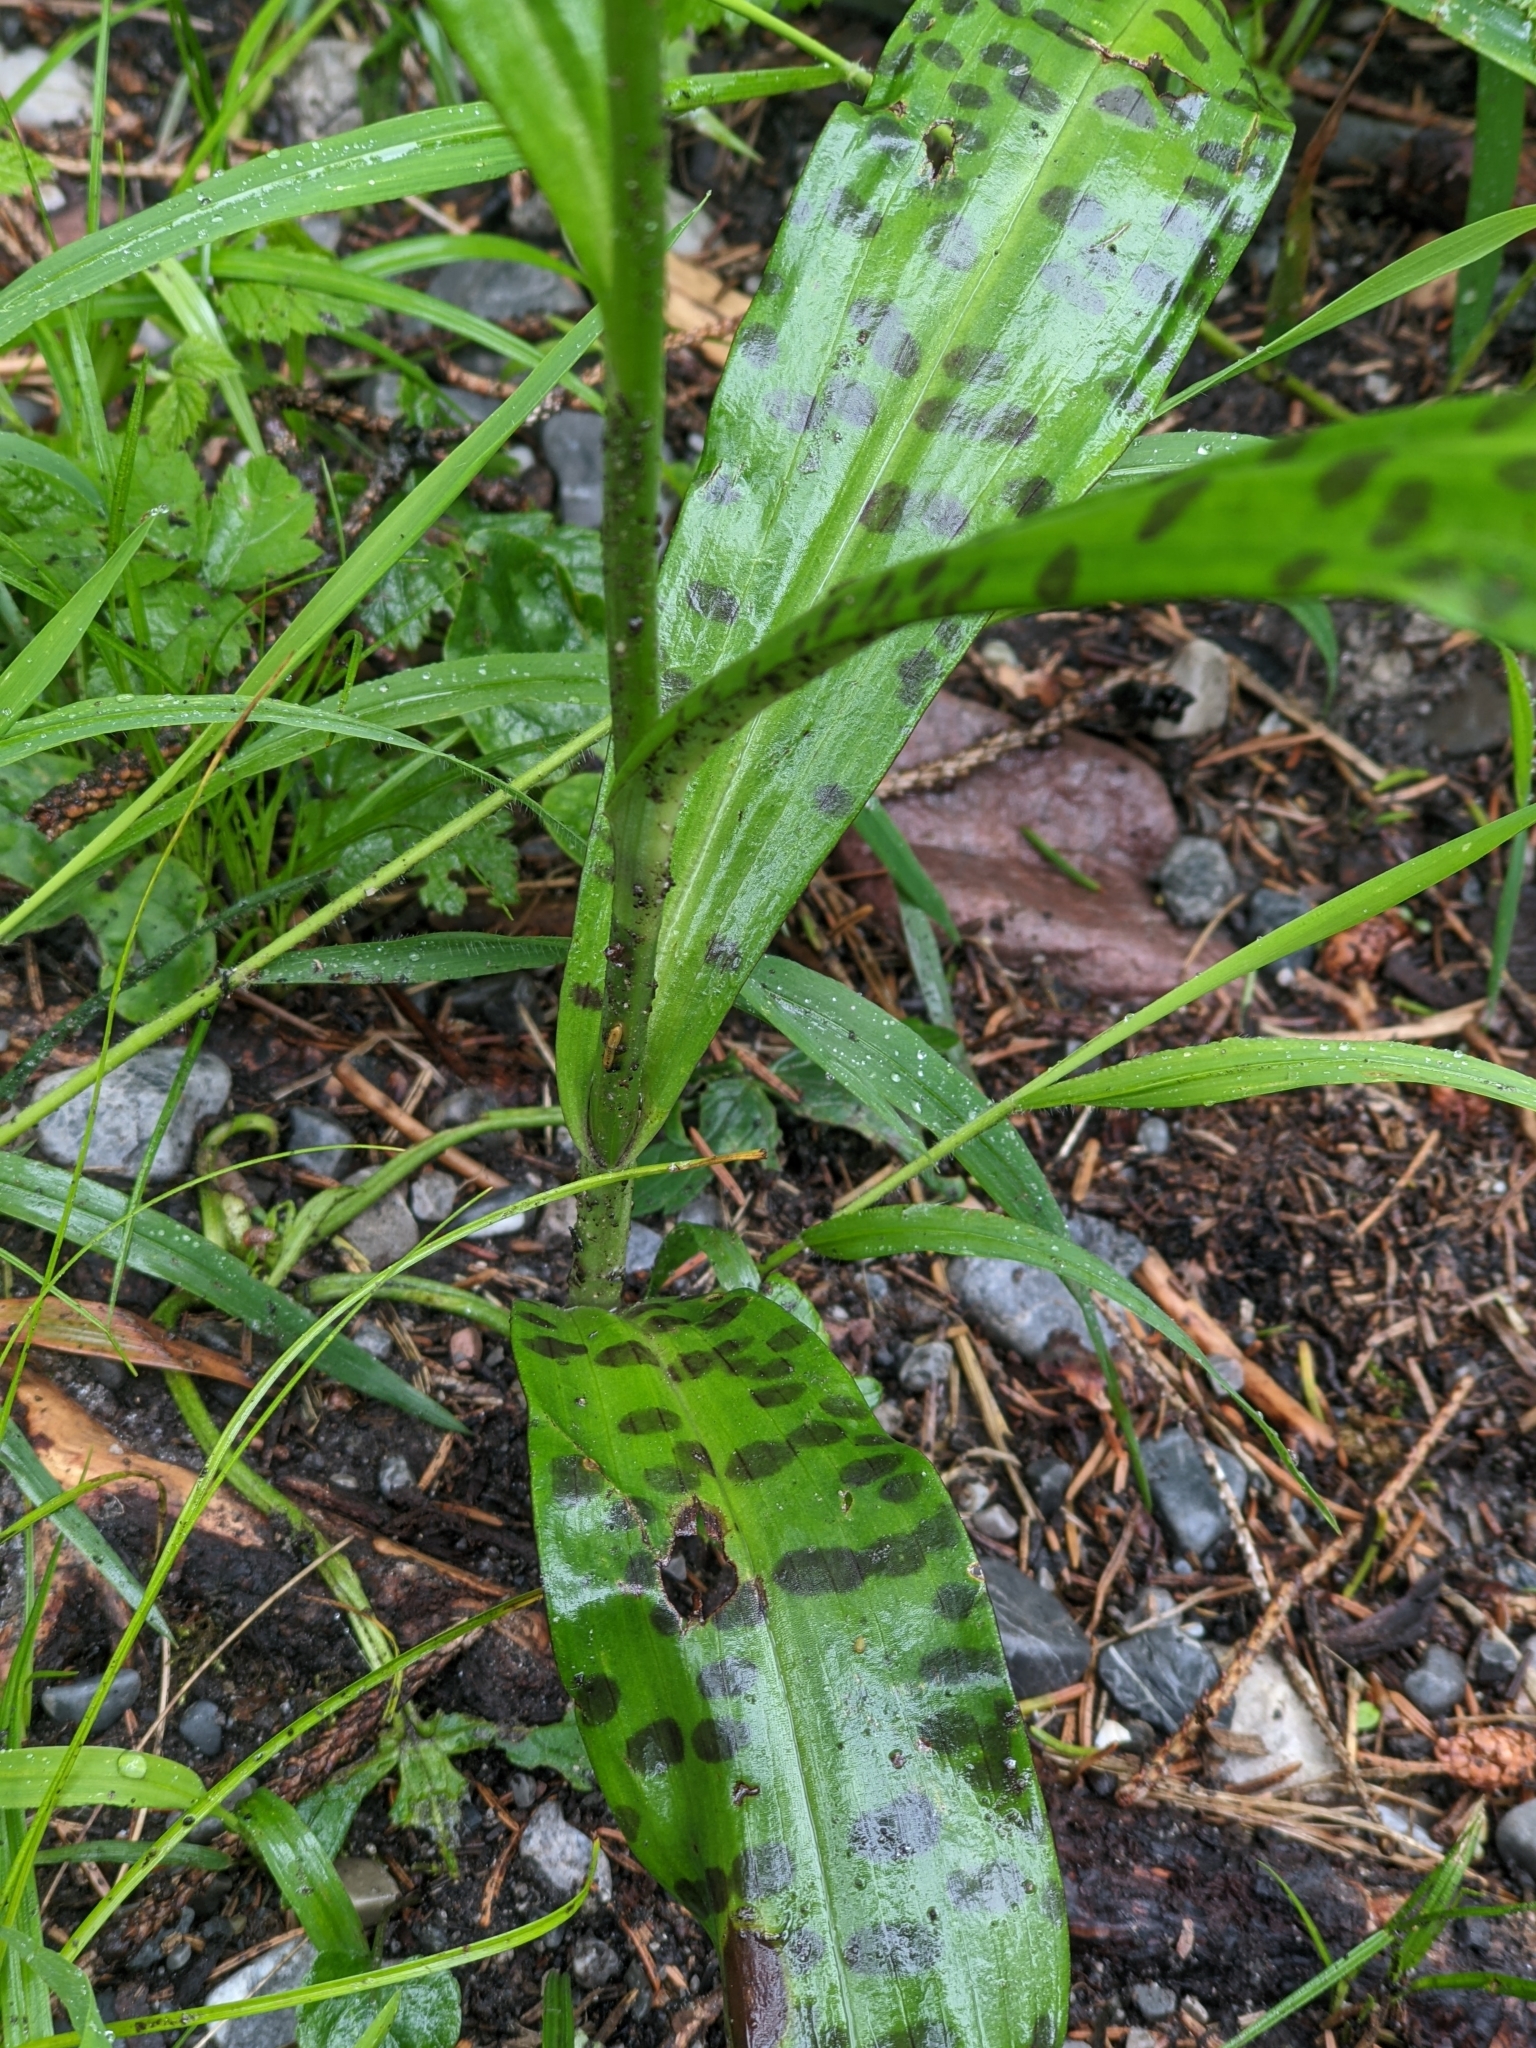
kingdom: Plantae
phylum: Tracheophyta
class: Liliopsida
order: Asparagales
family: Orchidaceae
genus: Dactylorhiza
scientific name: Dactylorhiza maculata
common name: Heath spotted-orchid
